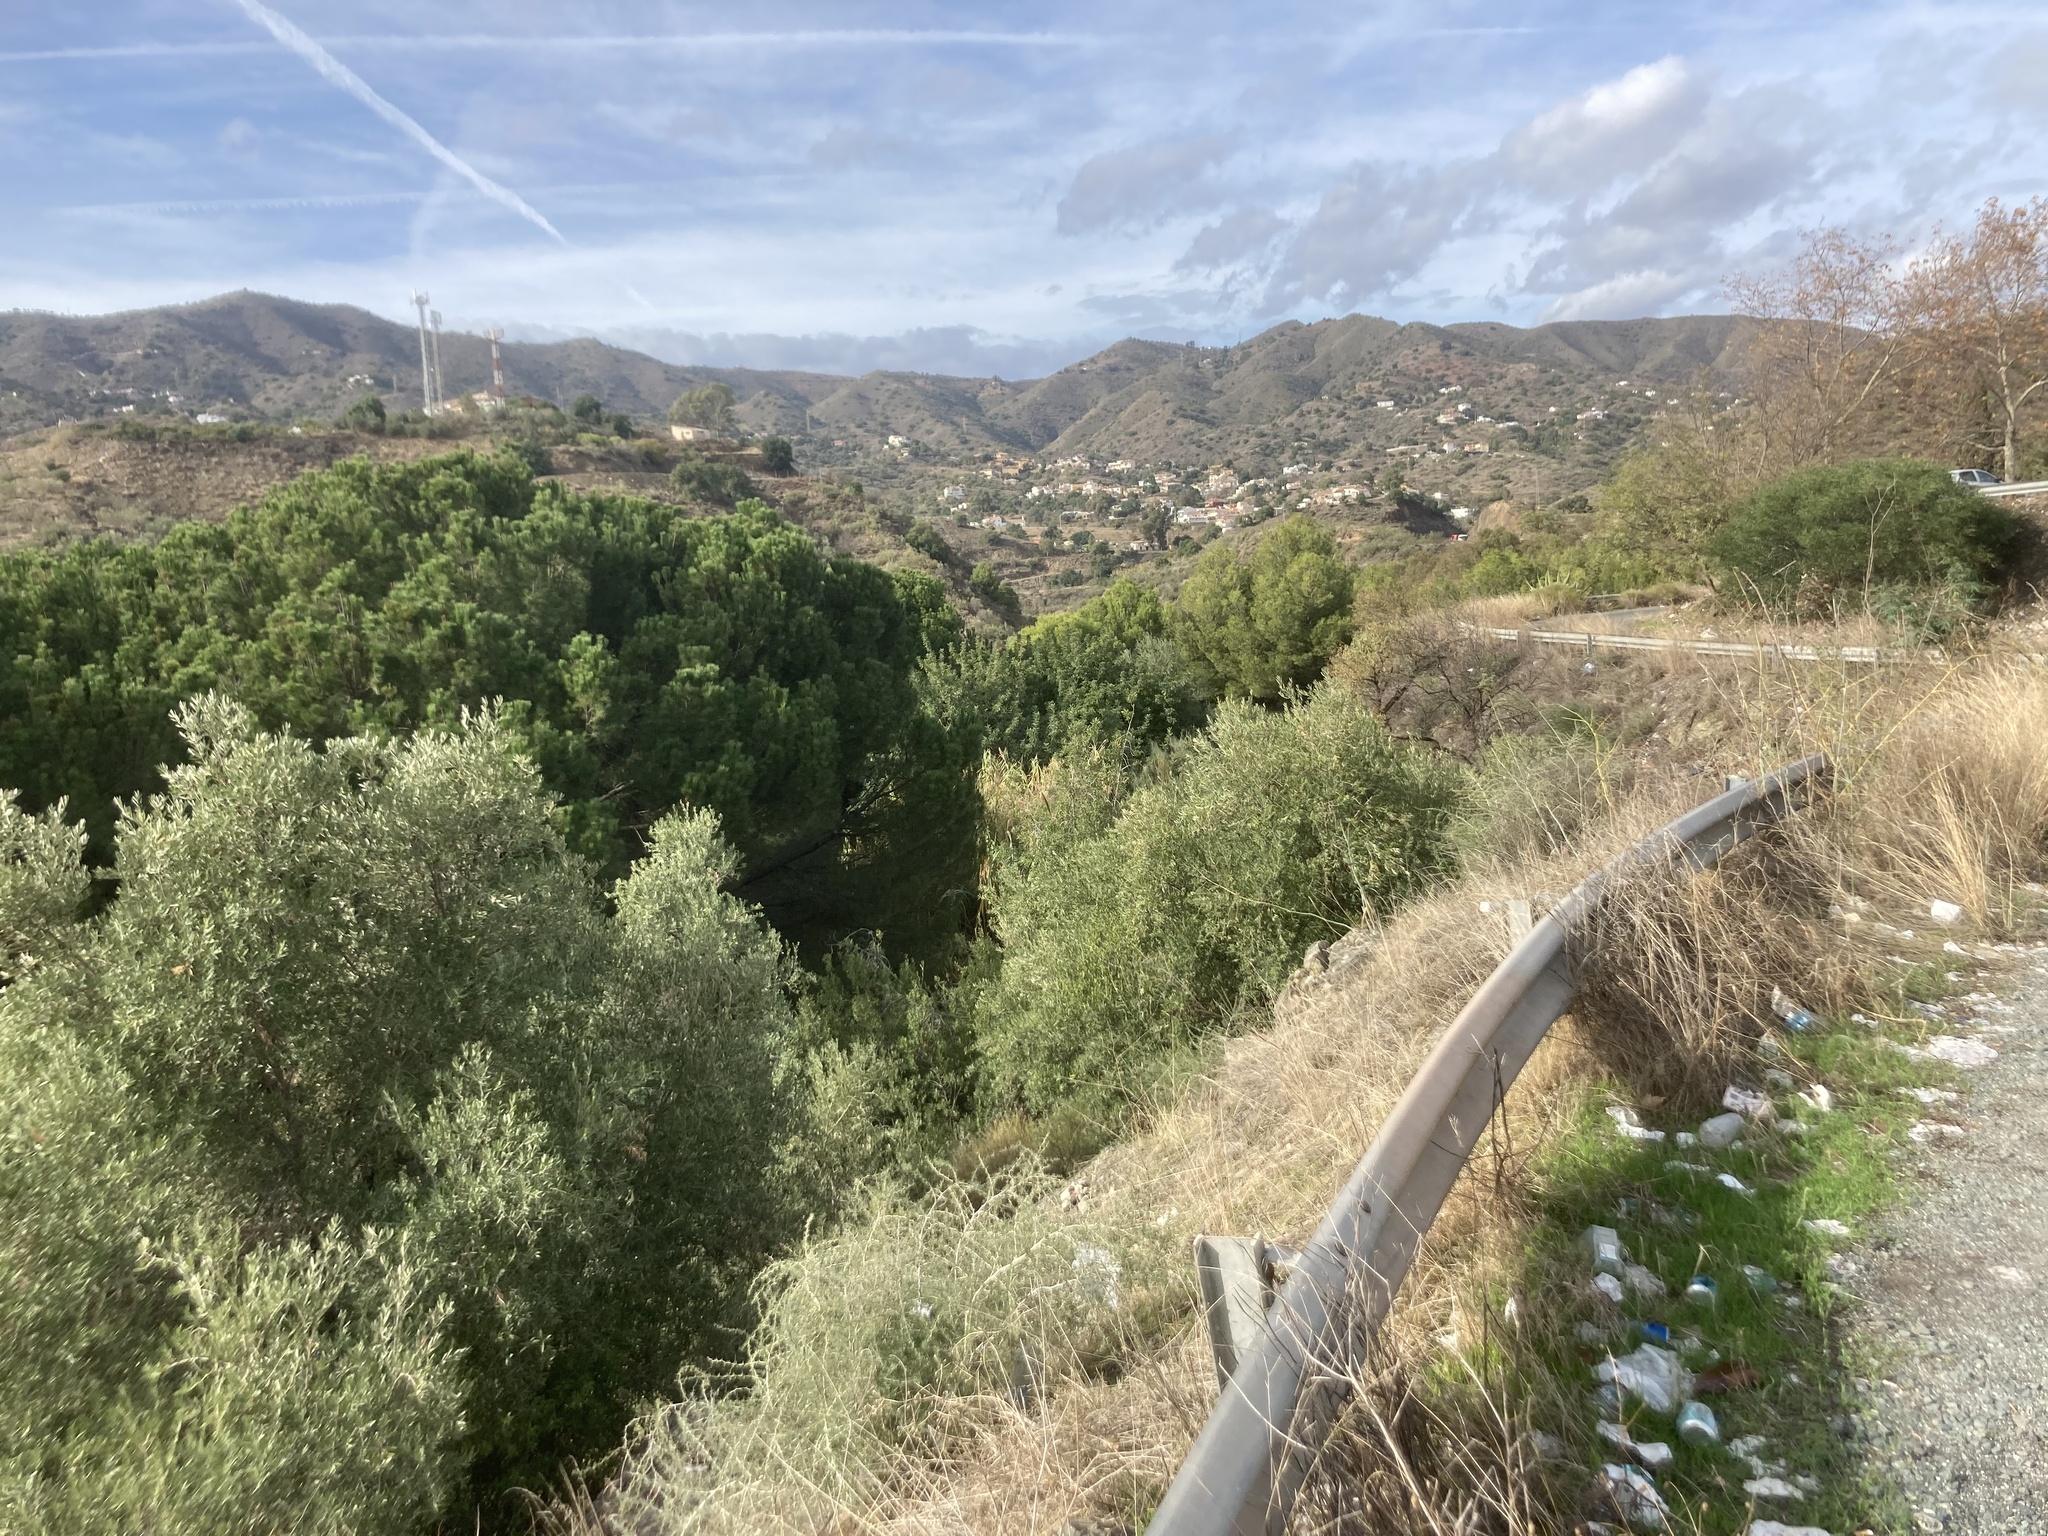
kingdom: Plantae
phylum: Tracheophyta
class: Pinopsida
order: Pinales
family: Pinaceae
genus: Pinus
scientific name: Pinus pinea
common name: Italian stone pine
